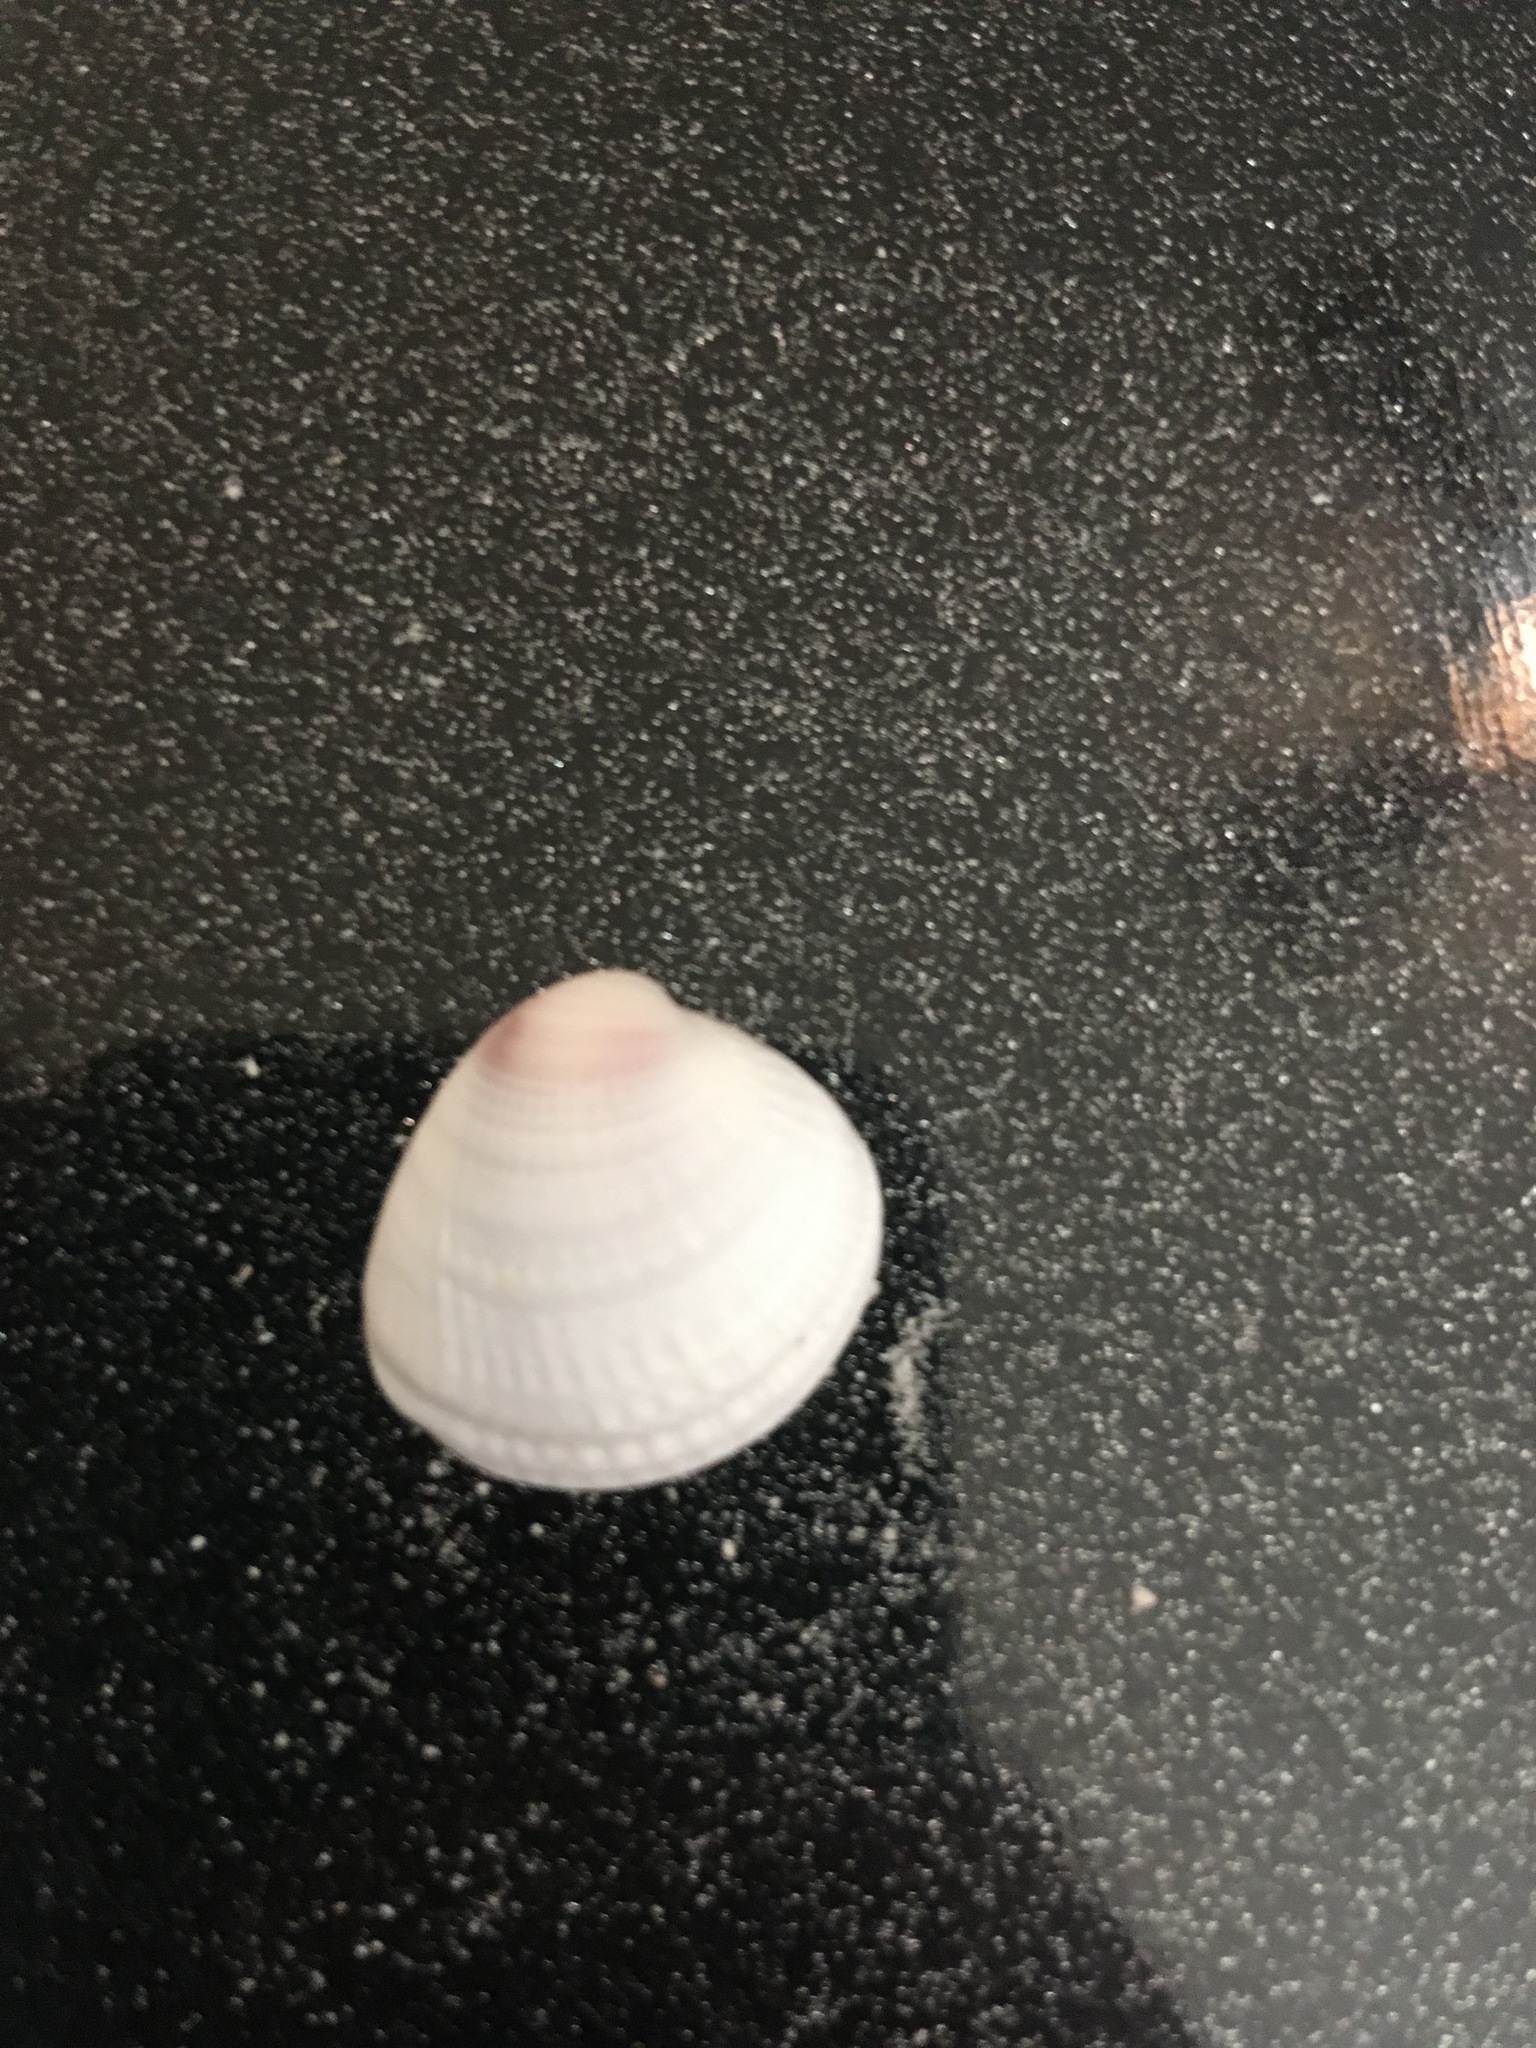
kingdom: Animalia
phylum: Mollusca
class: Bivalvia
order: Venerida
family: Veneridae
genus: Chione
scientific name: Chione elevata
